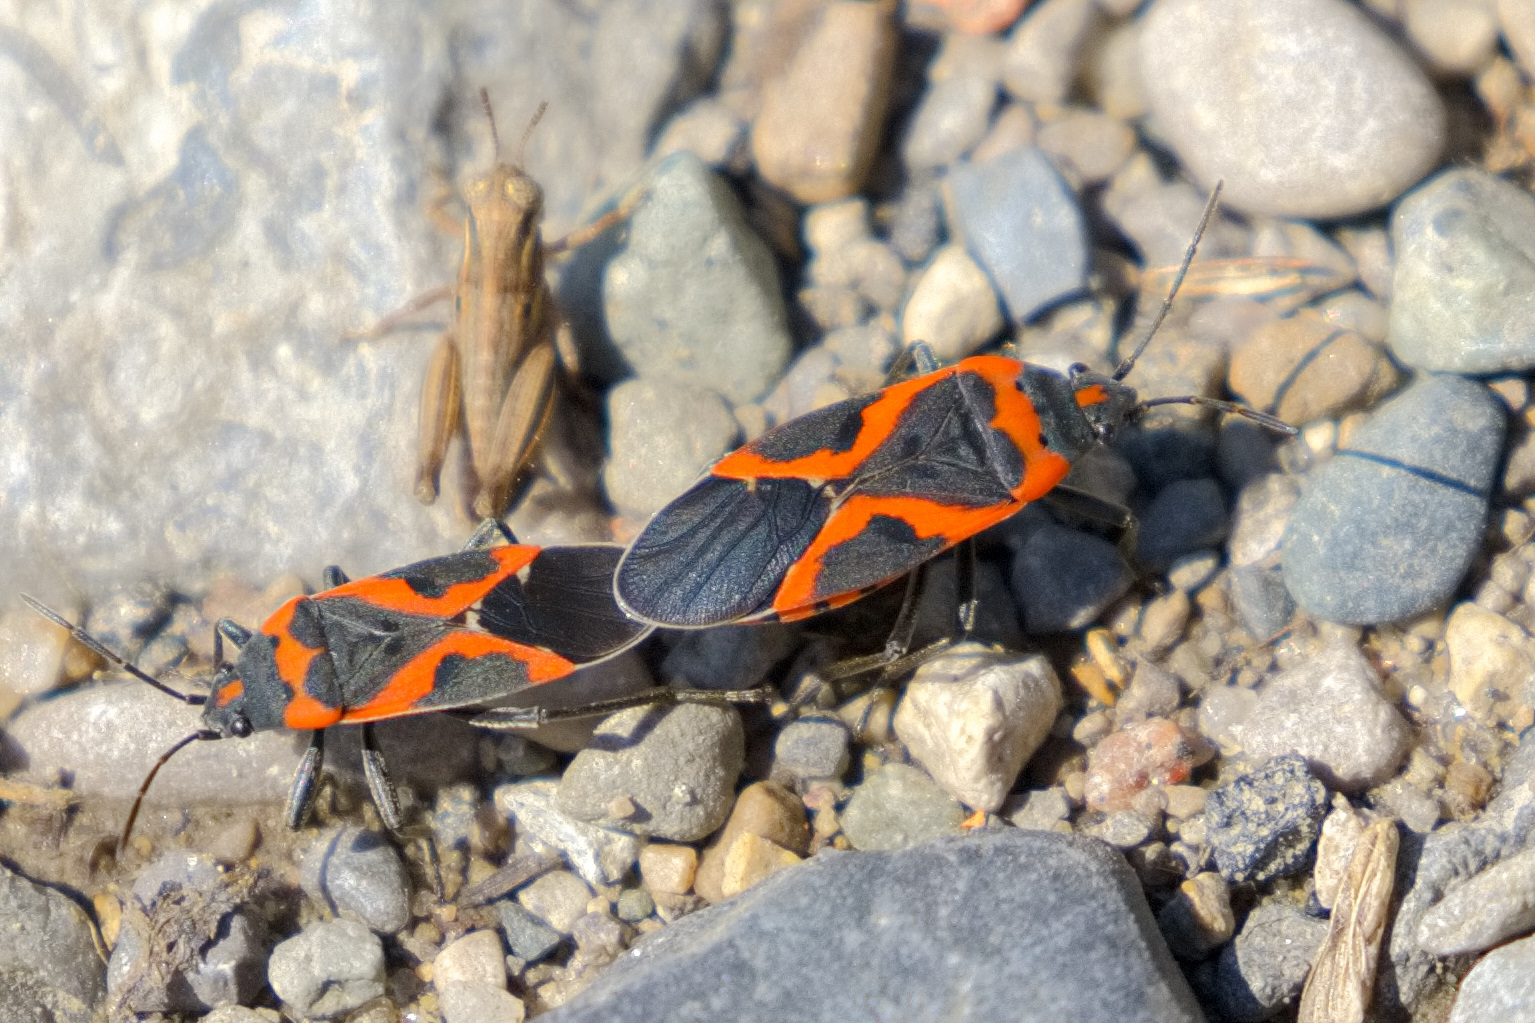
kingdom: Animalia
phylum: Arthropoda
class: Insecta
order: Hemiptera
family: Lygaeidae
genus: Lygaeus
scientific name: Lygaeus kalmii
